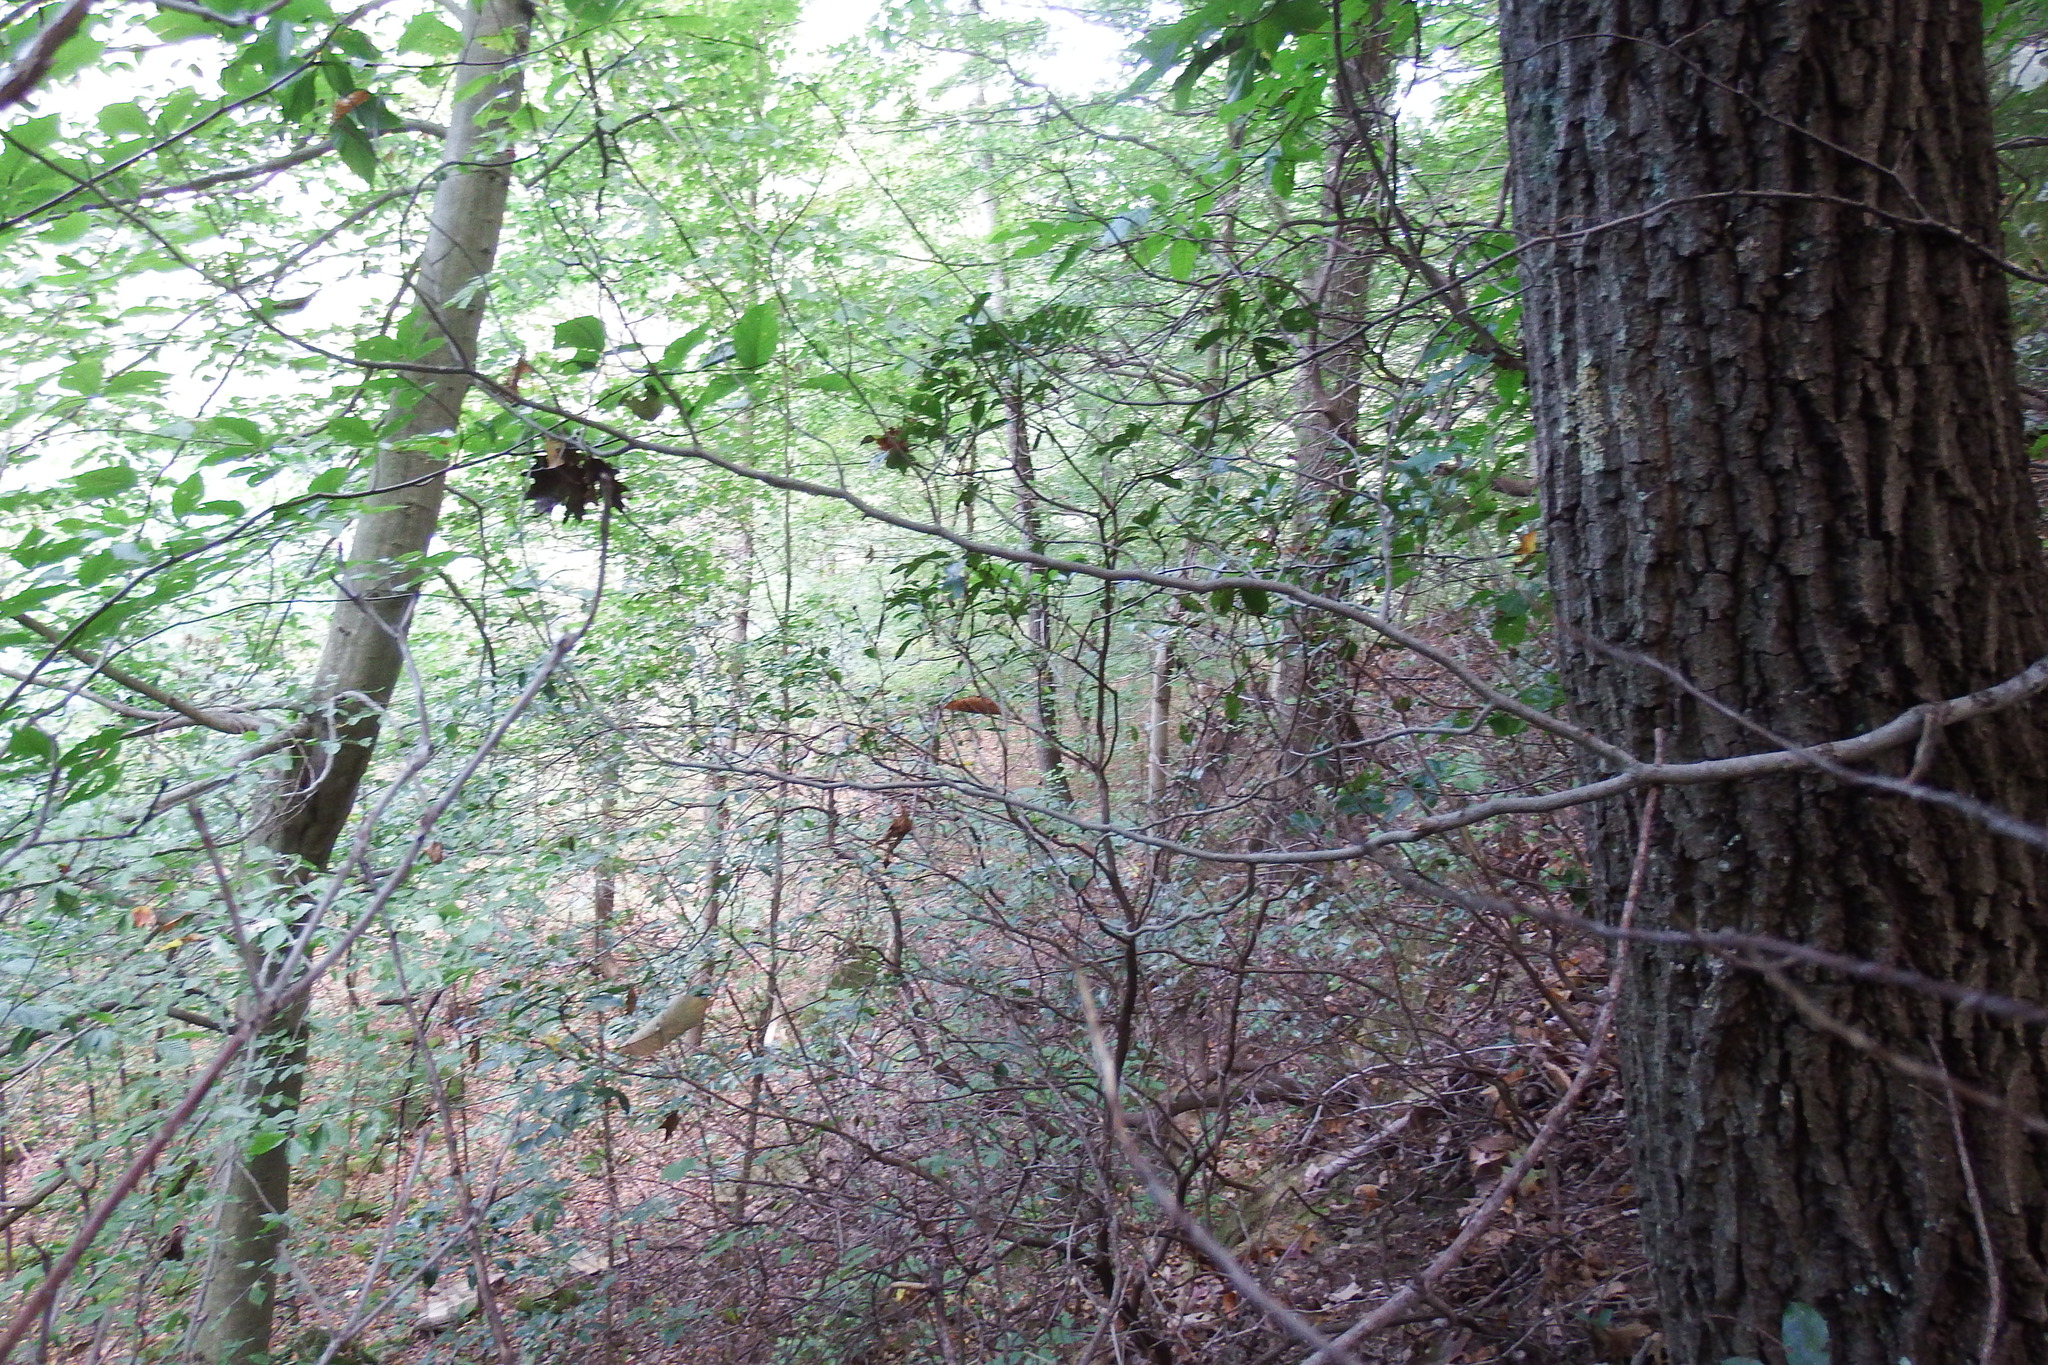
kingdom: Plantae
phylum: Tracheophyta
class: Magnoliopsida
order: Ericales
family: Ericaceae
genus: Kalmia
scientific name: Kalmia latifolia
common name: Mountain-laurel
